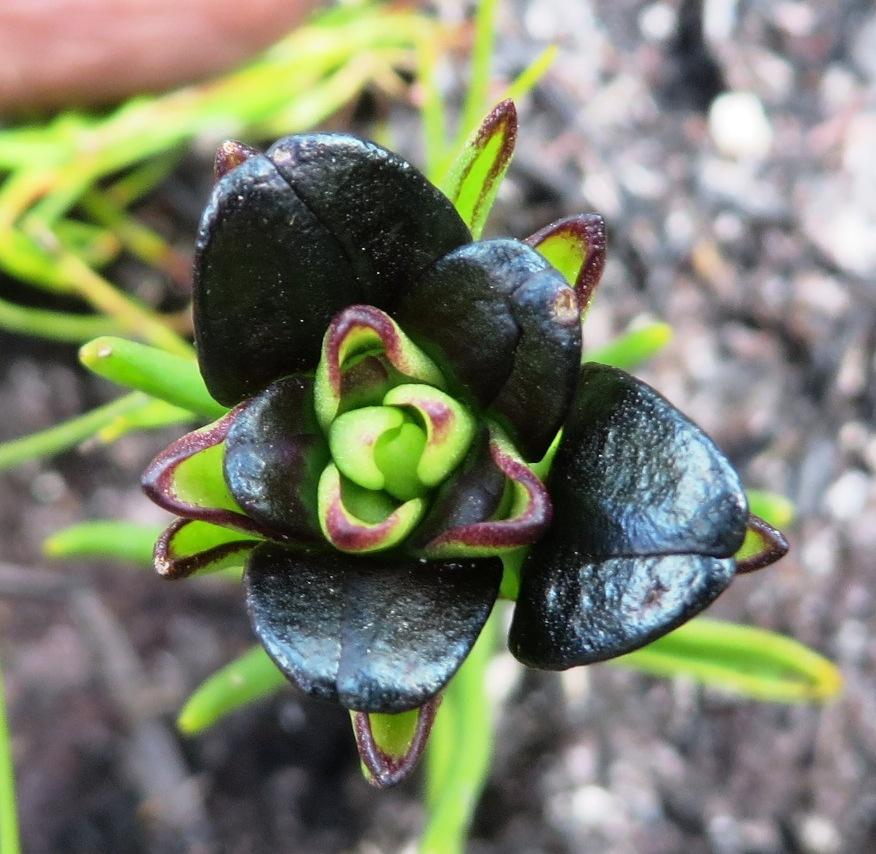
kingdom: Plantae
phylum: Tracheophyta
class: Liliopsida
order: Asparagales
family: Orchidaceae
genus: Disa
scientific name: Disa atricapilla
